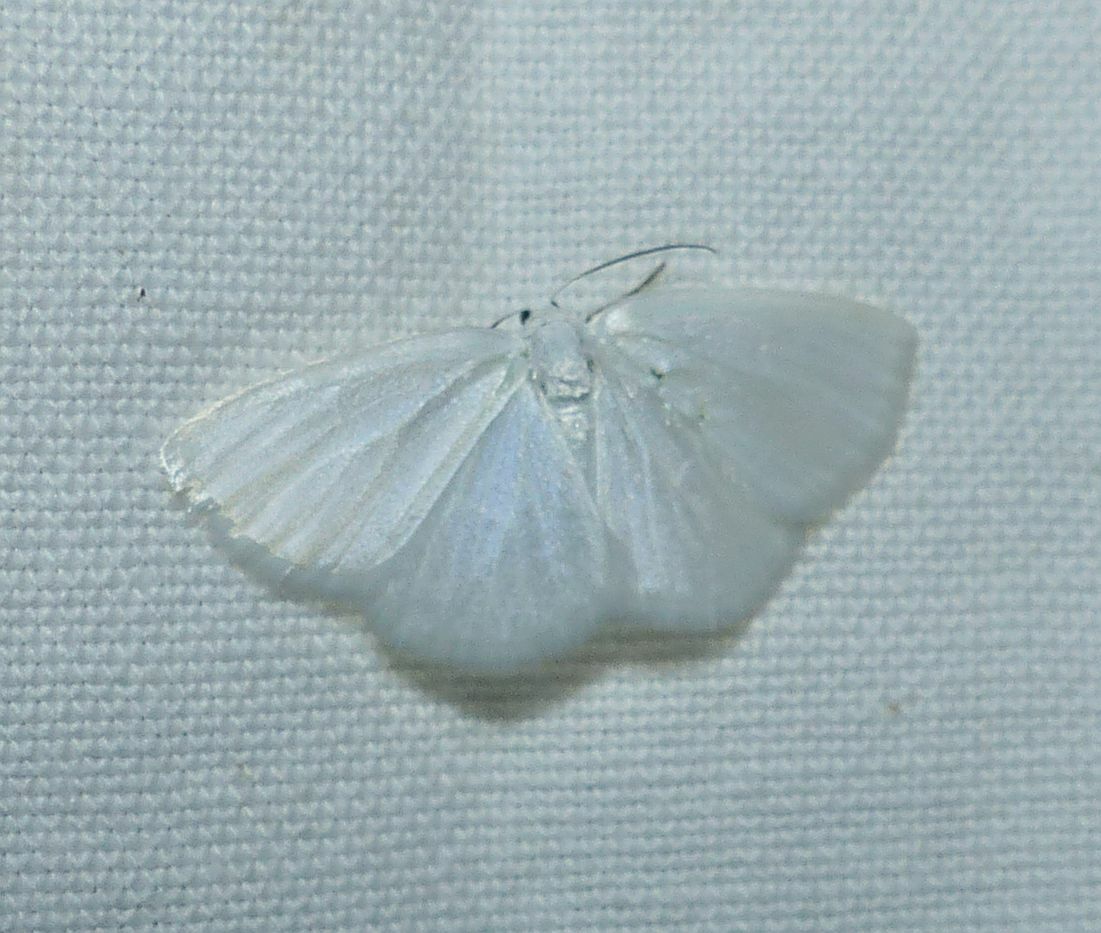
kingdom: Animalia
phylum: Arthropoda
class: Insecta
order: Lepidoptera
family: Geometridae
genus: Lomographa
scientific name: Lomographa vestaliata
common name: White spring moth
